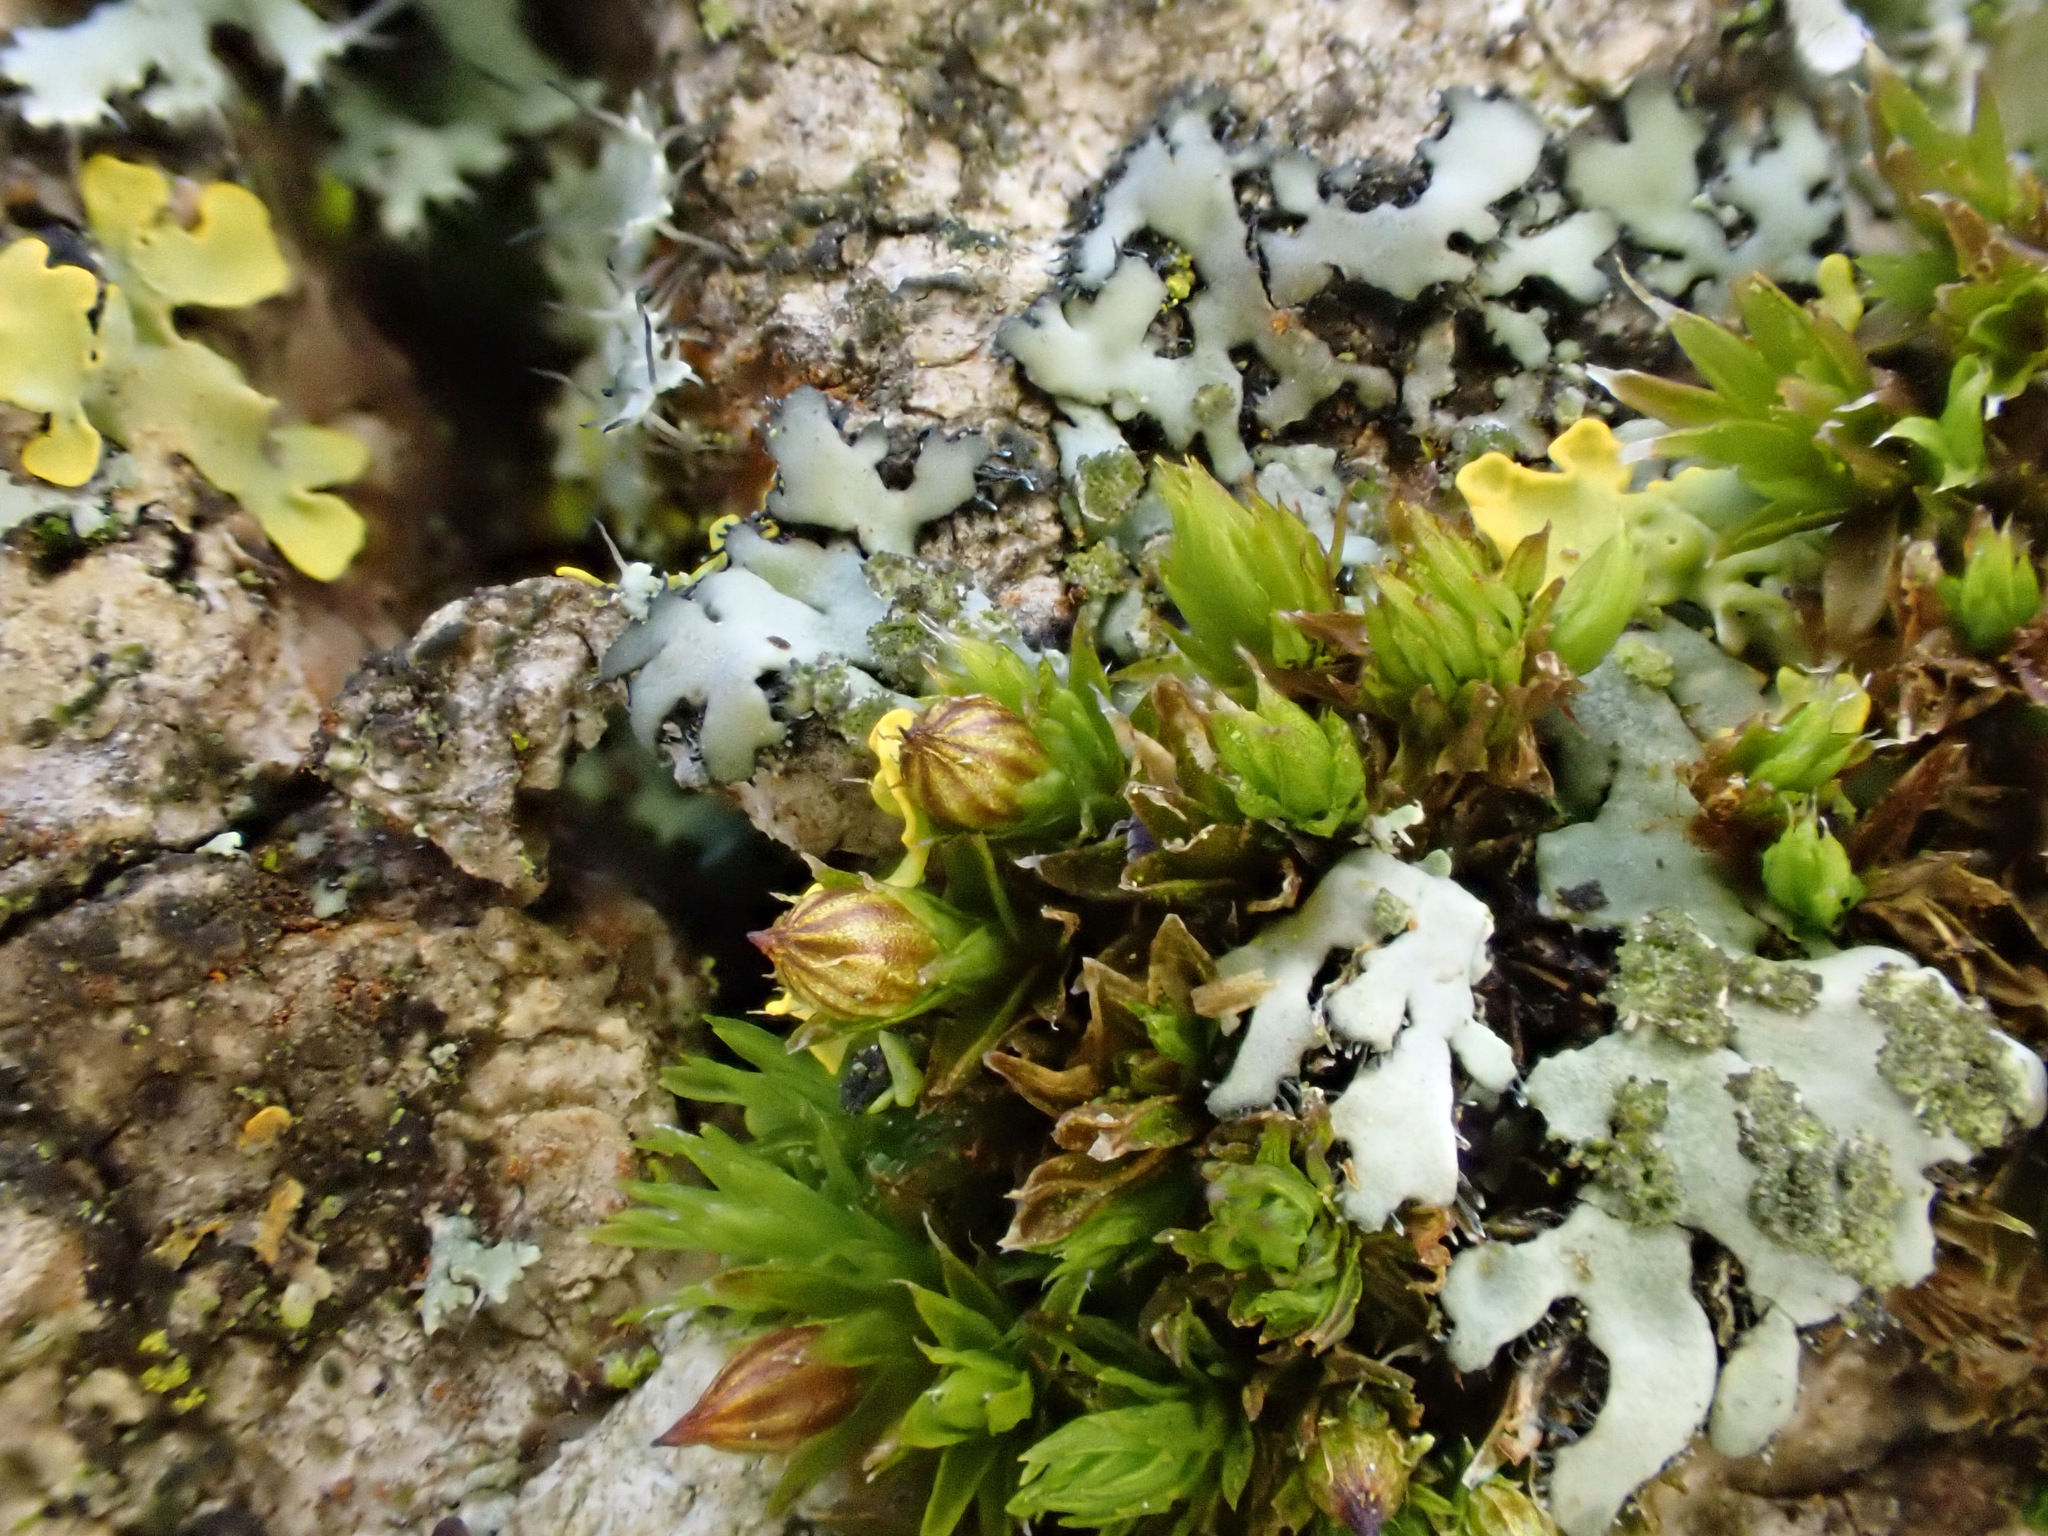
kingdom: Plantae
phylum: Bryophyta
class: Bryopsida
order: Orthotrichales
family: Orthotrichaceae
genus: Orthotrichum
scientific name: Orthotrichum diaphanum
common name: White-tipped bristle-moss
